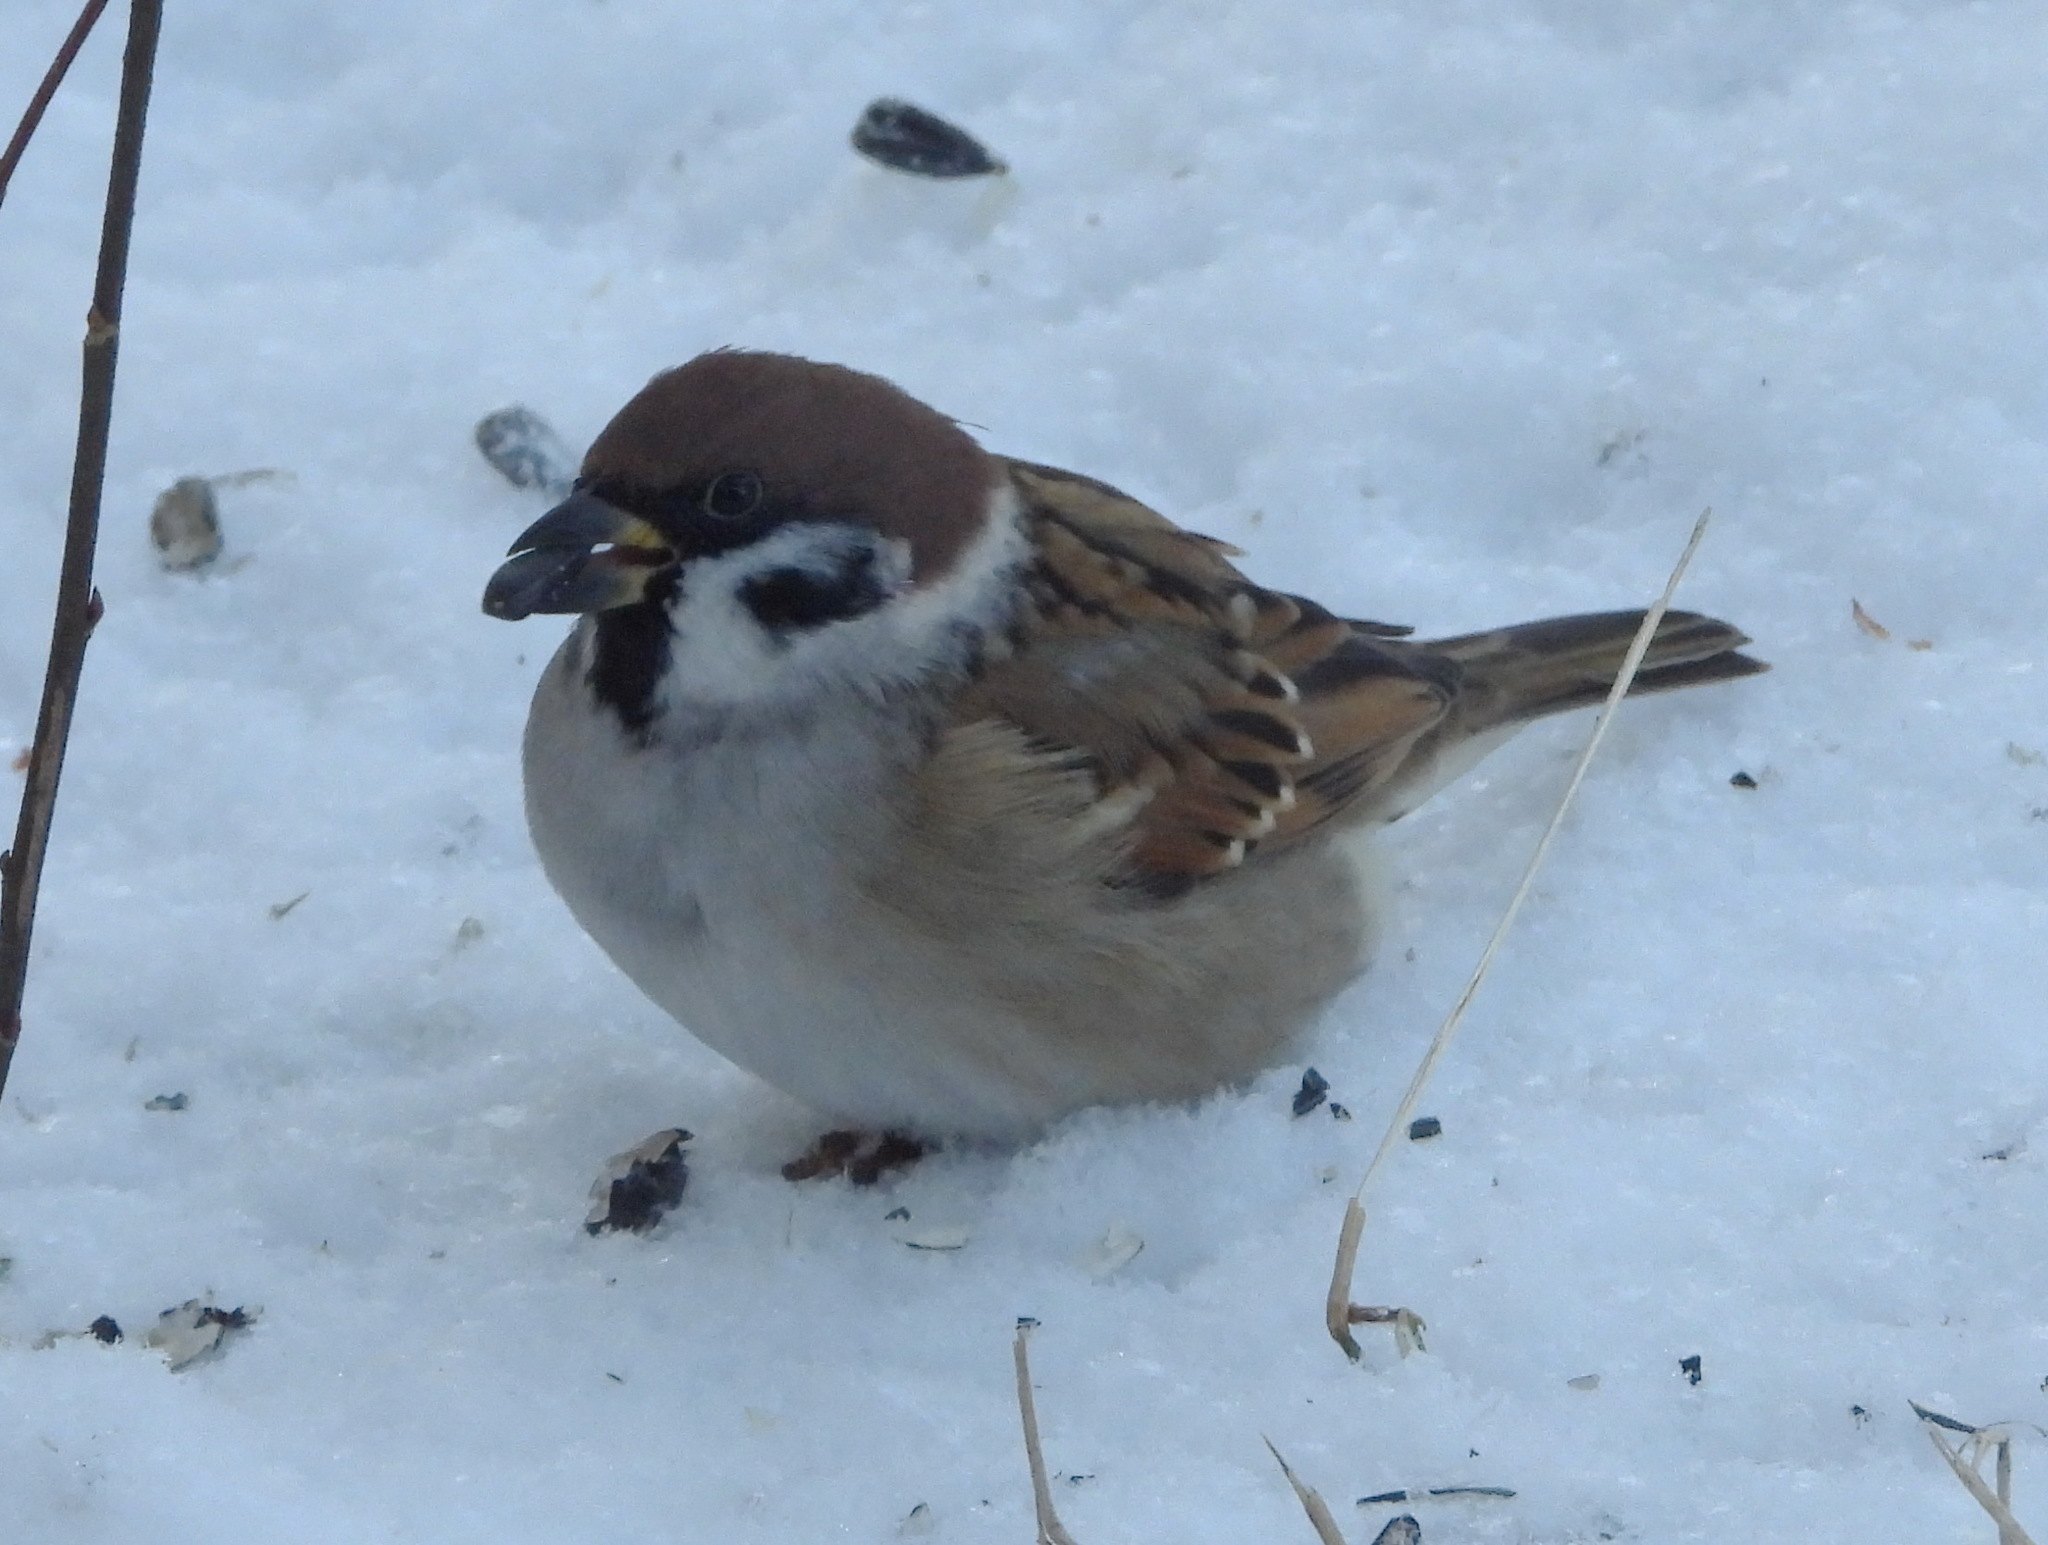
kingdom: Animalia
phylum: Chordata
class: Aves
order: Passeriformes
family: Passeridae
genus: Passer
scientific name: Passer montanus
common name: Eurasian tree sparrow
